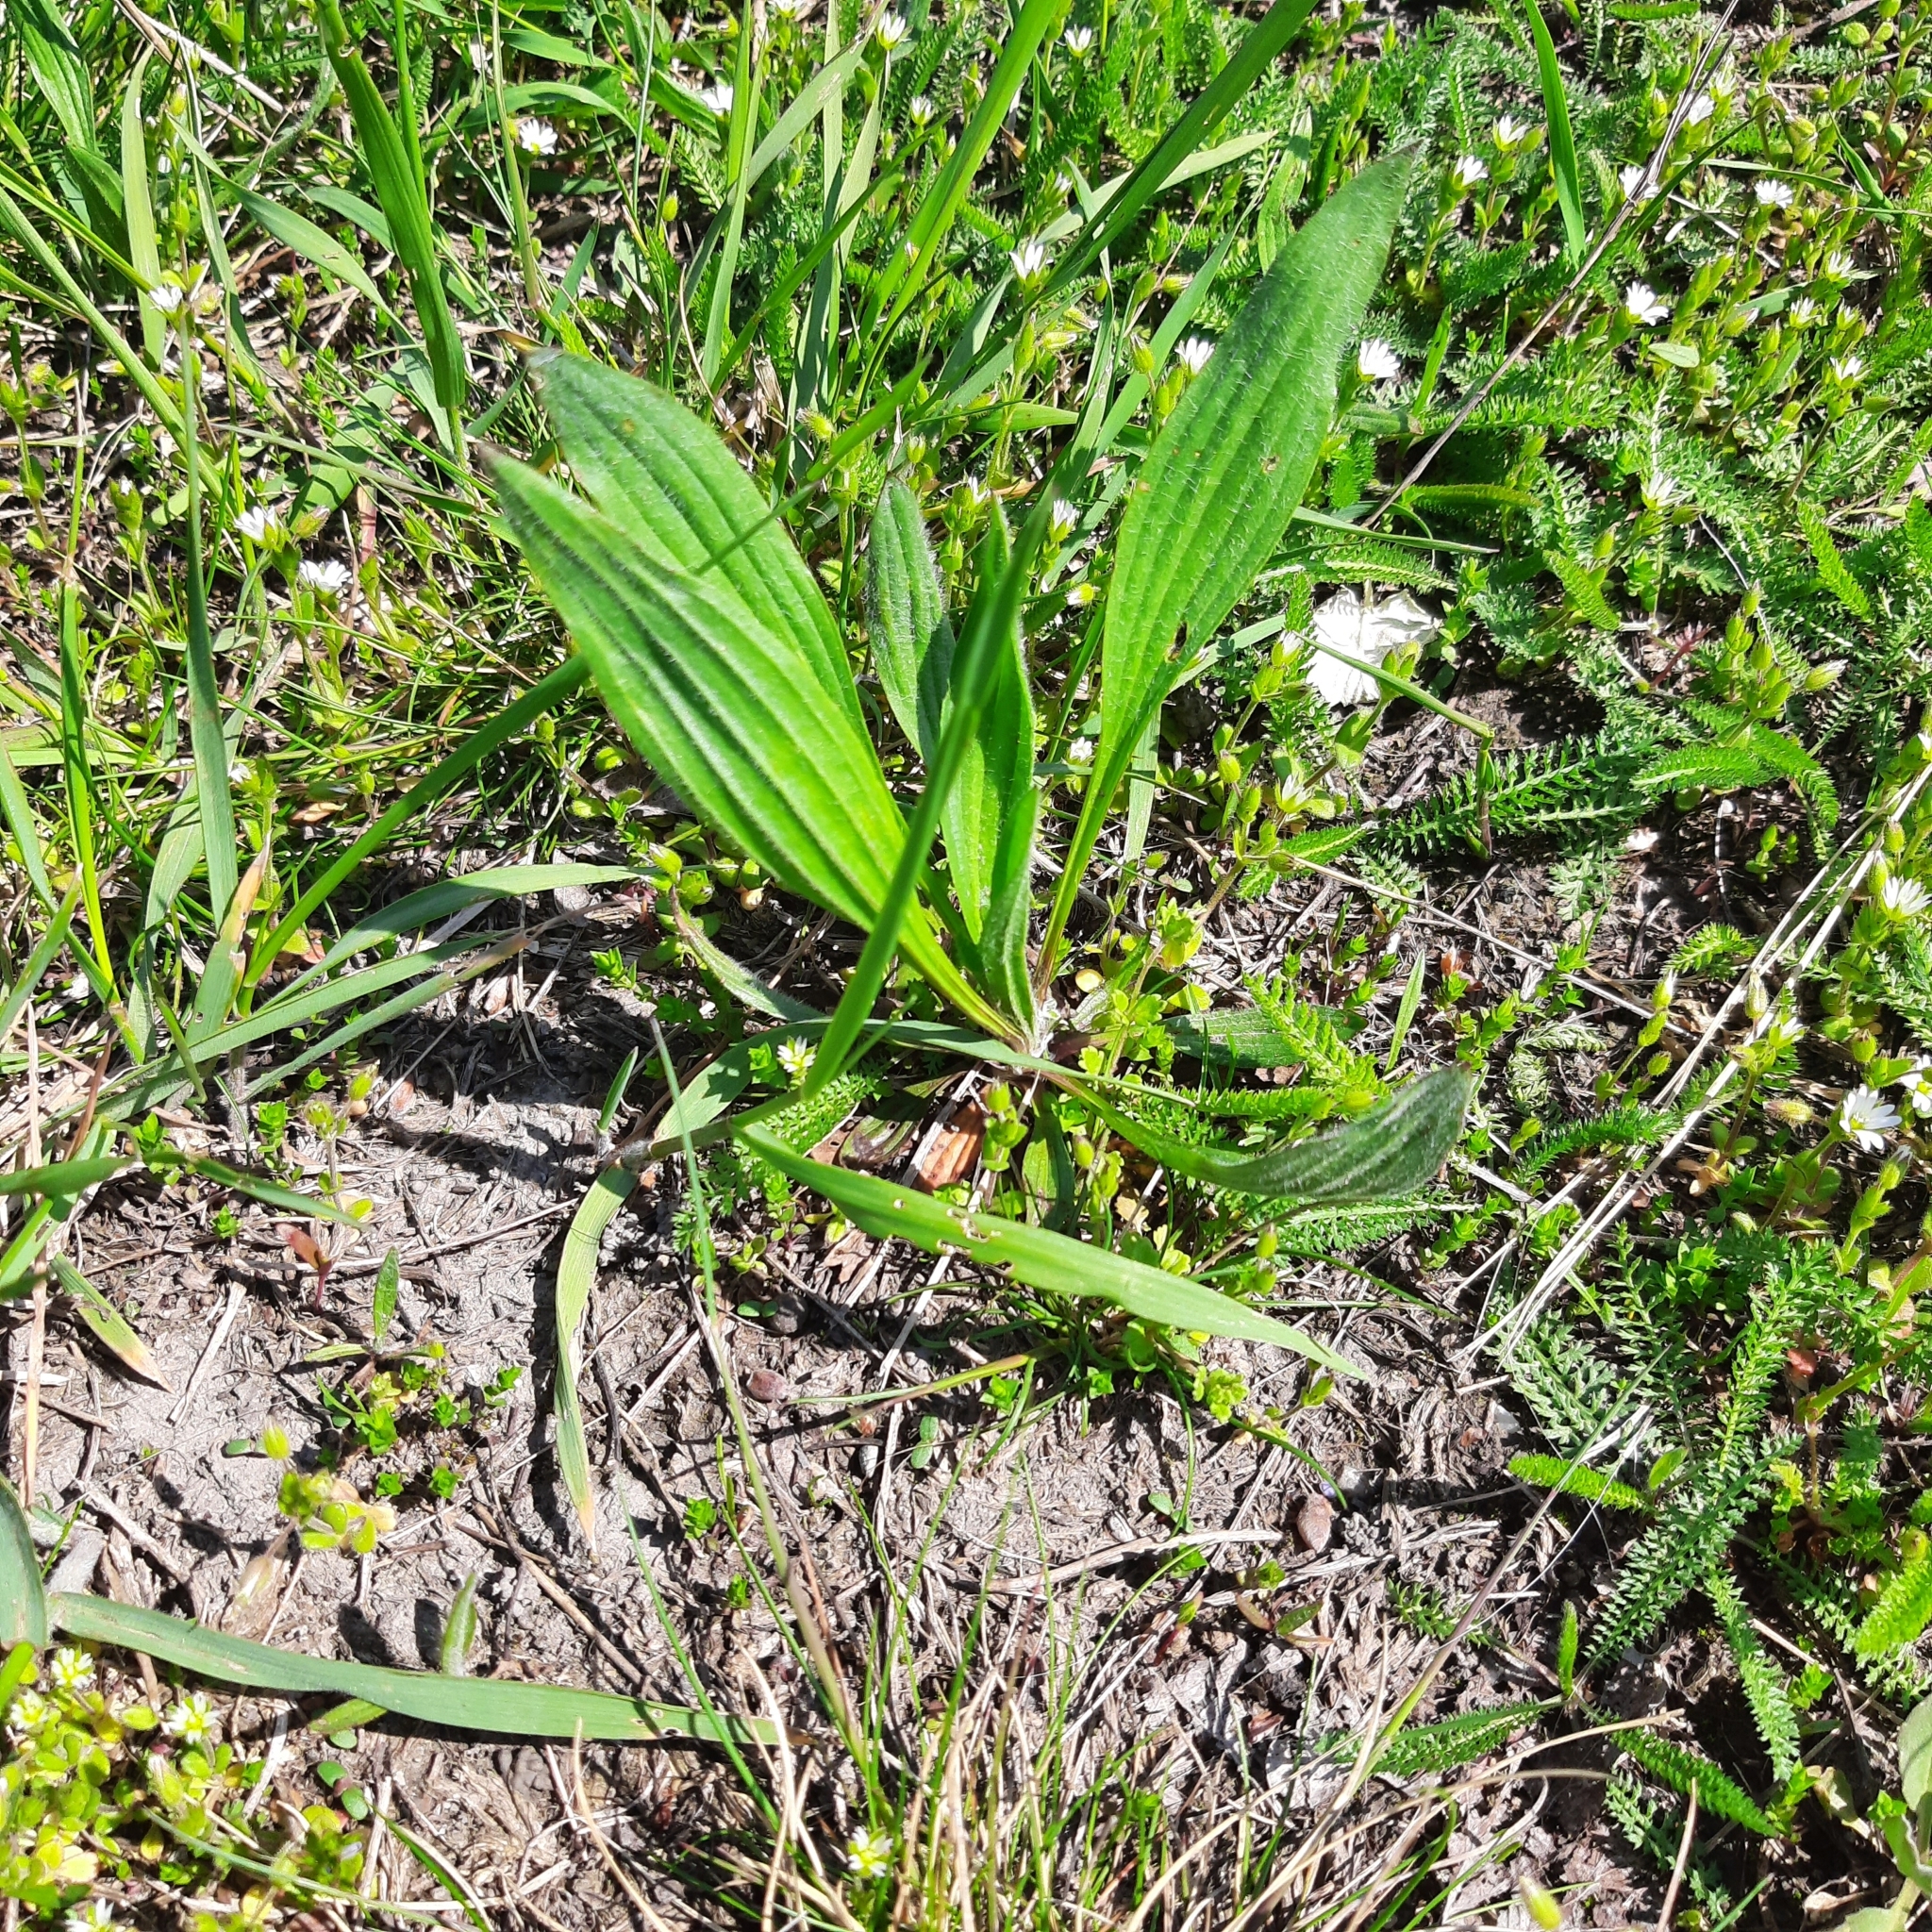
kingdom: Plantae
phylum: Tracheophyta
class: Magnoliopsida
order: Lamiales
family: Plantaginaceae
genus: Plantago
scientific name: Plantago lanceolata
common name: Ribwort plantain
